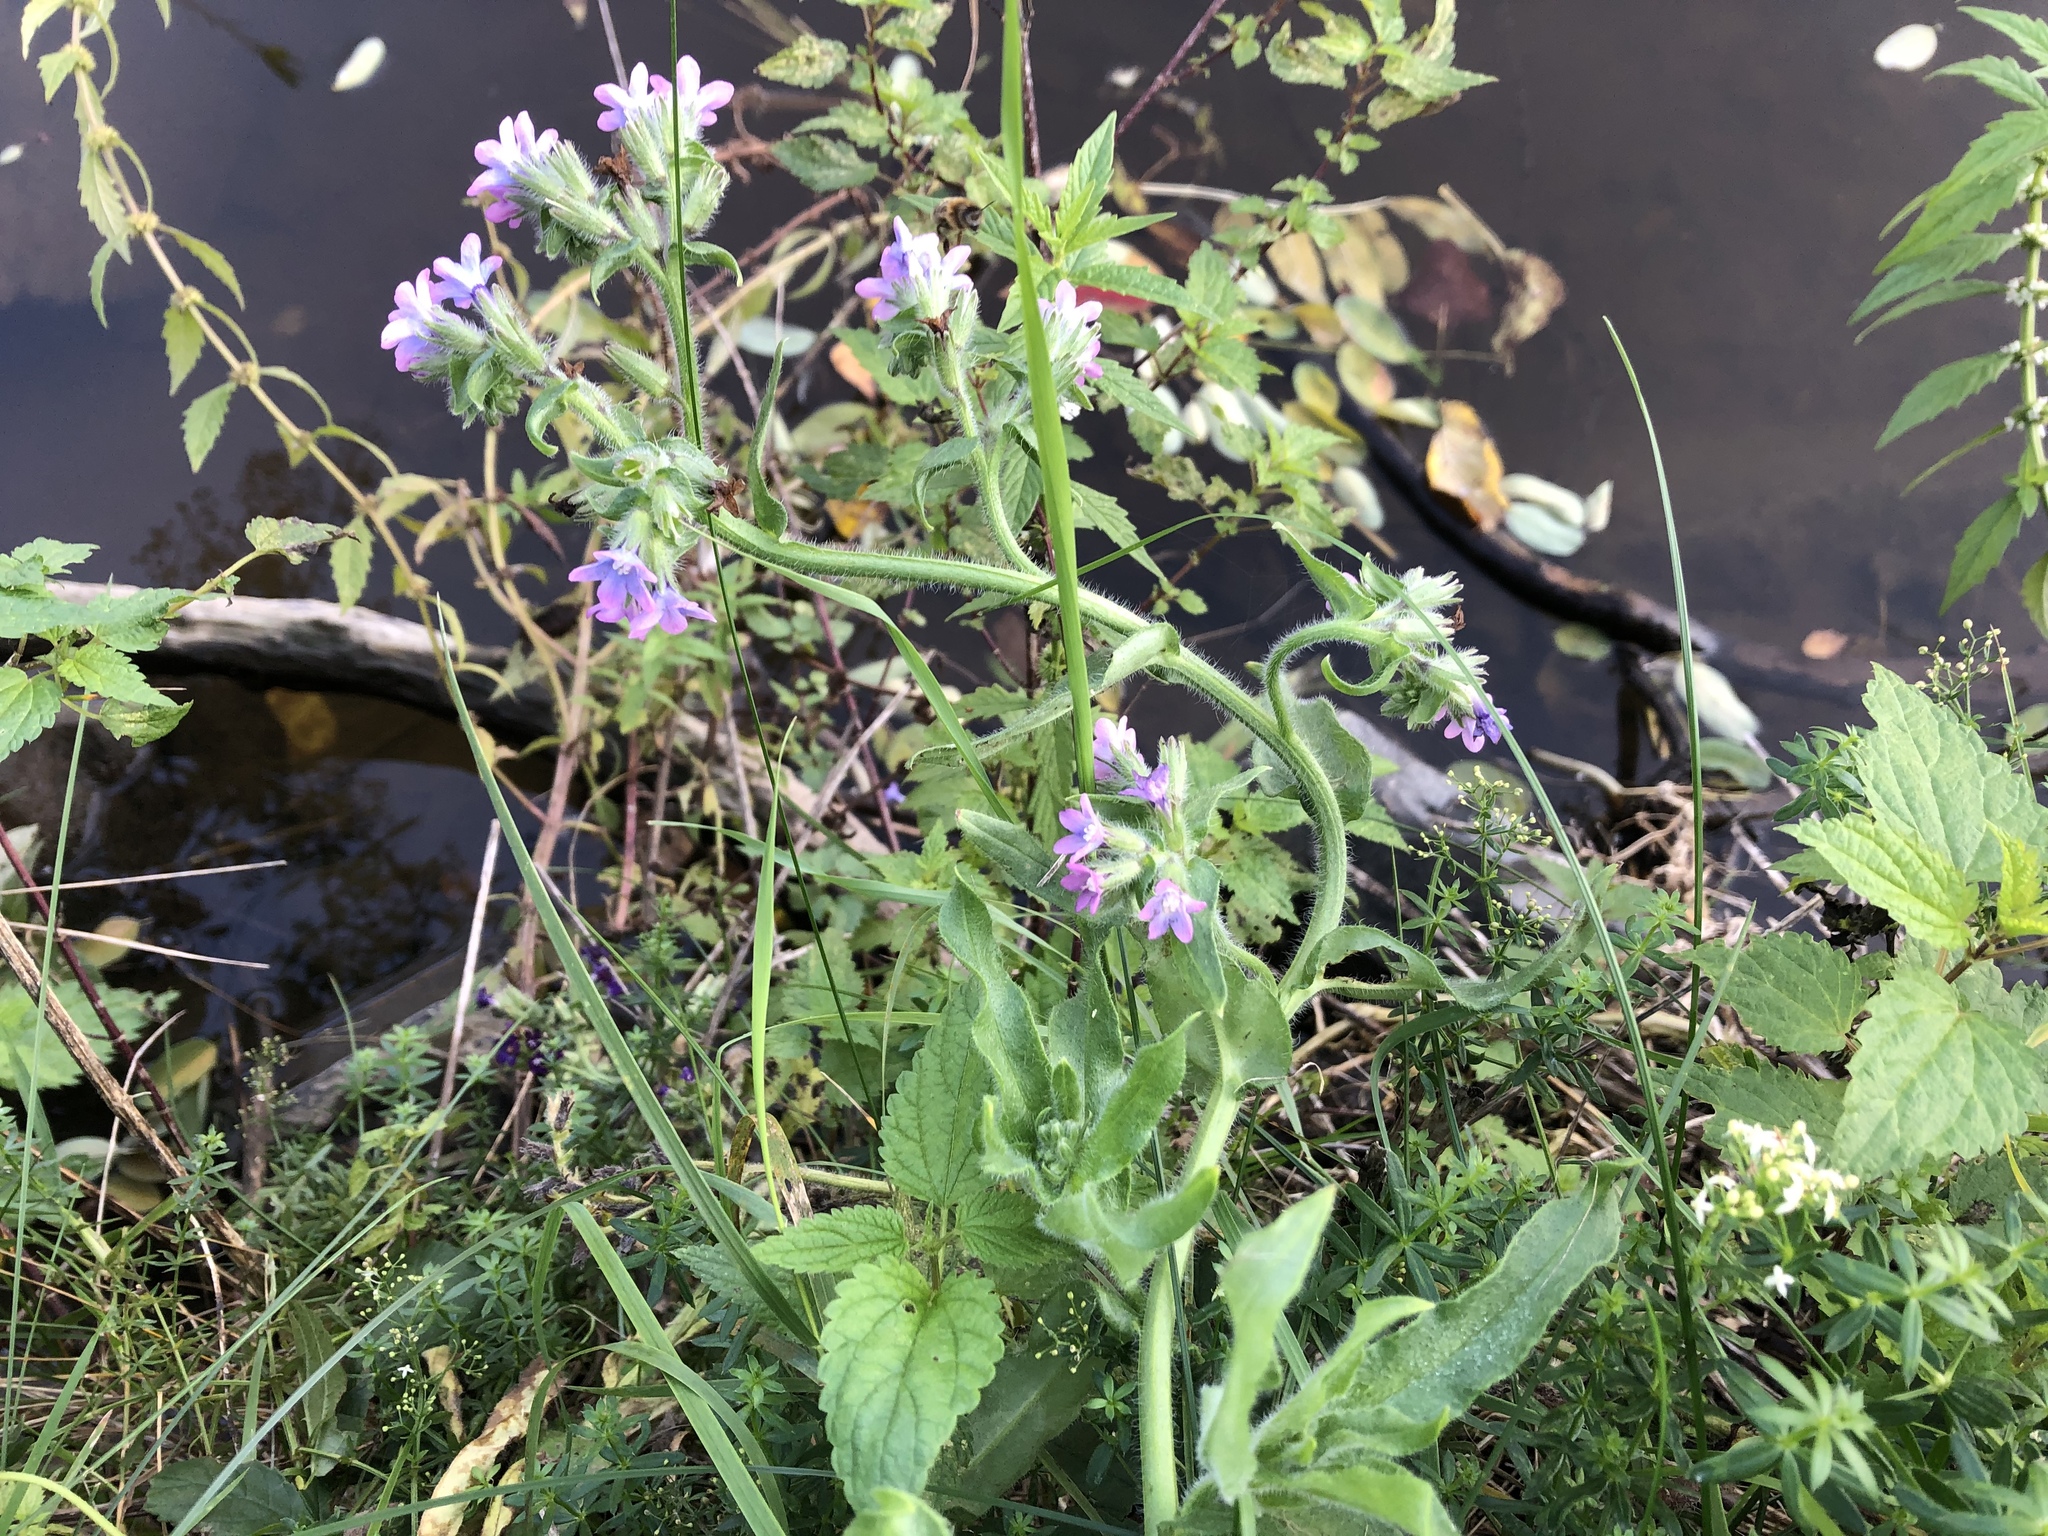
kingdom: Plantae
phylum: Tracheophyta
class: Magnoliopsida
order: Boraginales
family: Boraginaceae
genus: Anchusa
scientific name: Anchusa officinalis
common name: Alkanet
